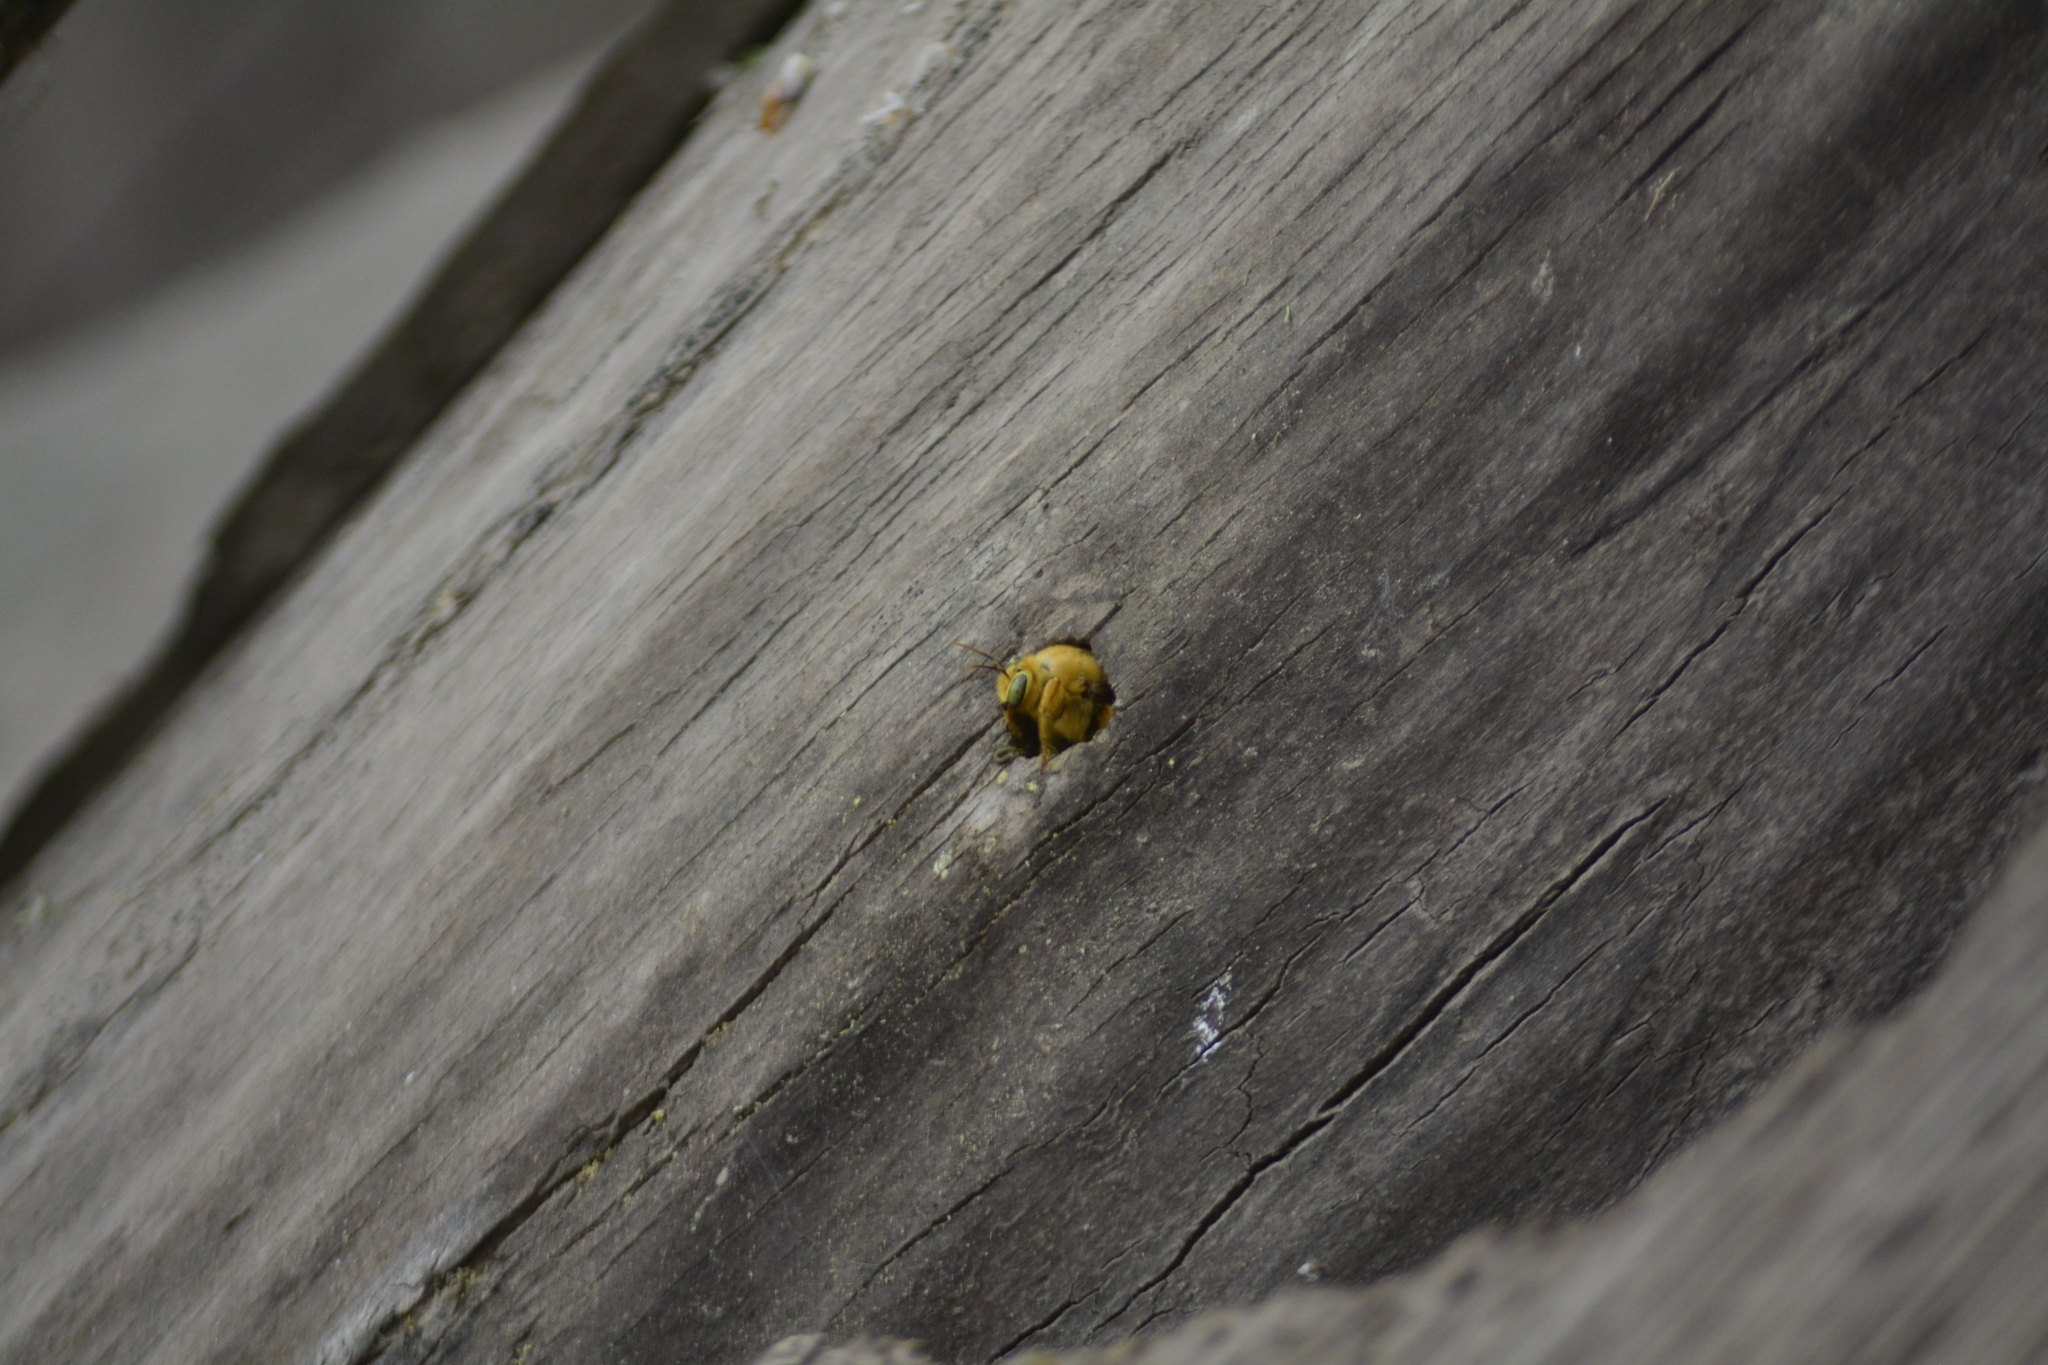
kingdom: Animalia
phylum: Arthropoda
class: Insecta
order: Hymenoptera
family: Apidae
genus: Xylocopa
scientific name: Xylocopa augusti
